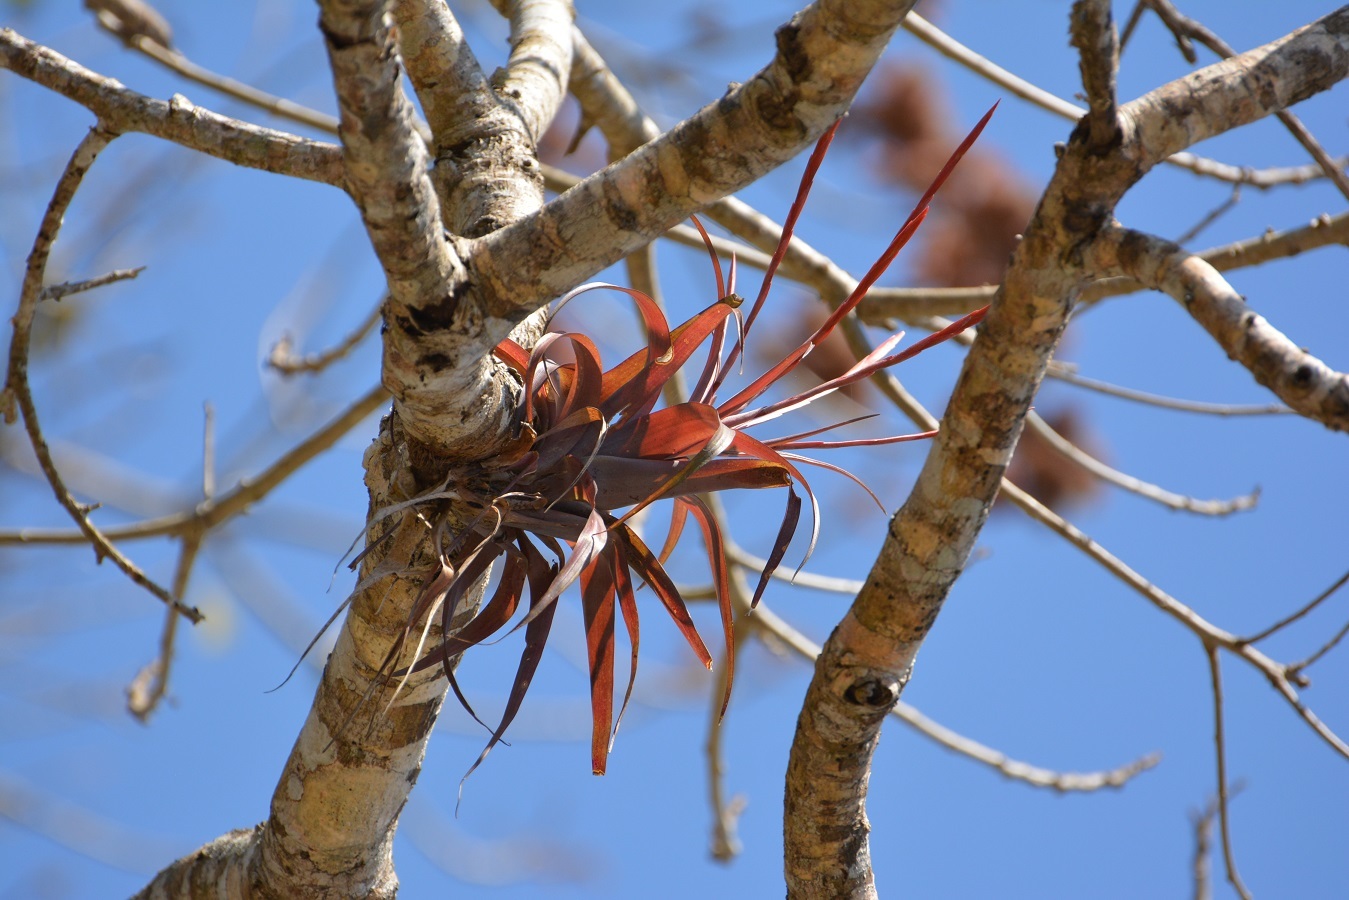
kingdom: Plantae
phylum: Tracheophyta
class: Liliopsida
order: Poales
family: Bromeliaceae
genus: Tillandsia
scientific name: Tillandsia flabellata
